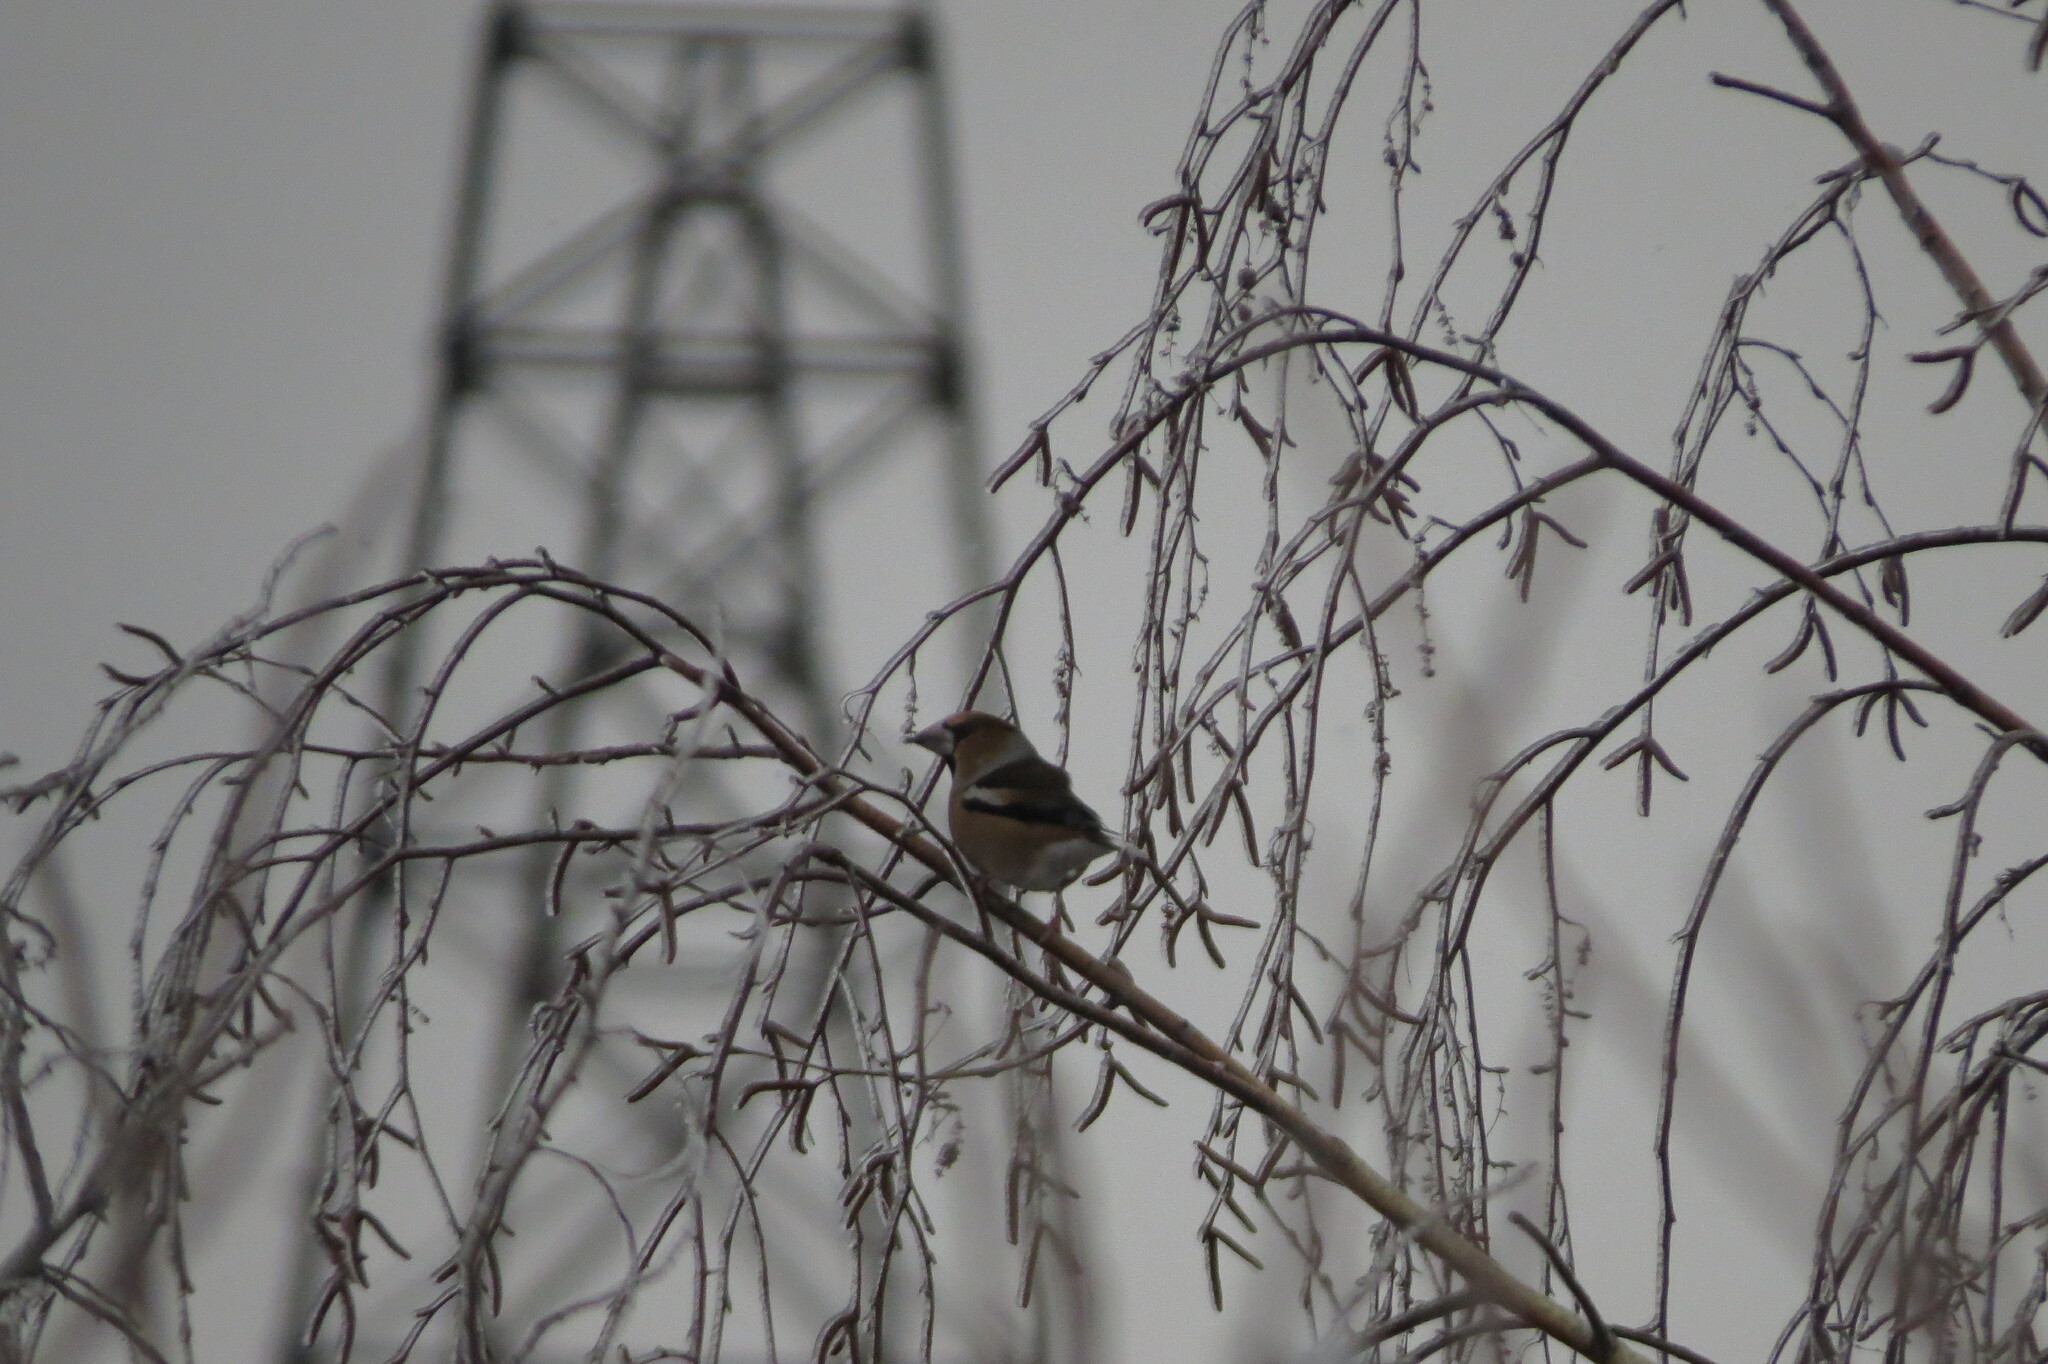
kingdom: Animalia
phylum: Chordata
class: Aves
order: Passeriformes
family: Fringillidae
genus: Coccothraustes
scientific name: Coccothraustes coccothraustes
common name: Hawfinch
